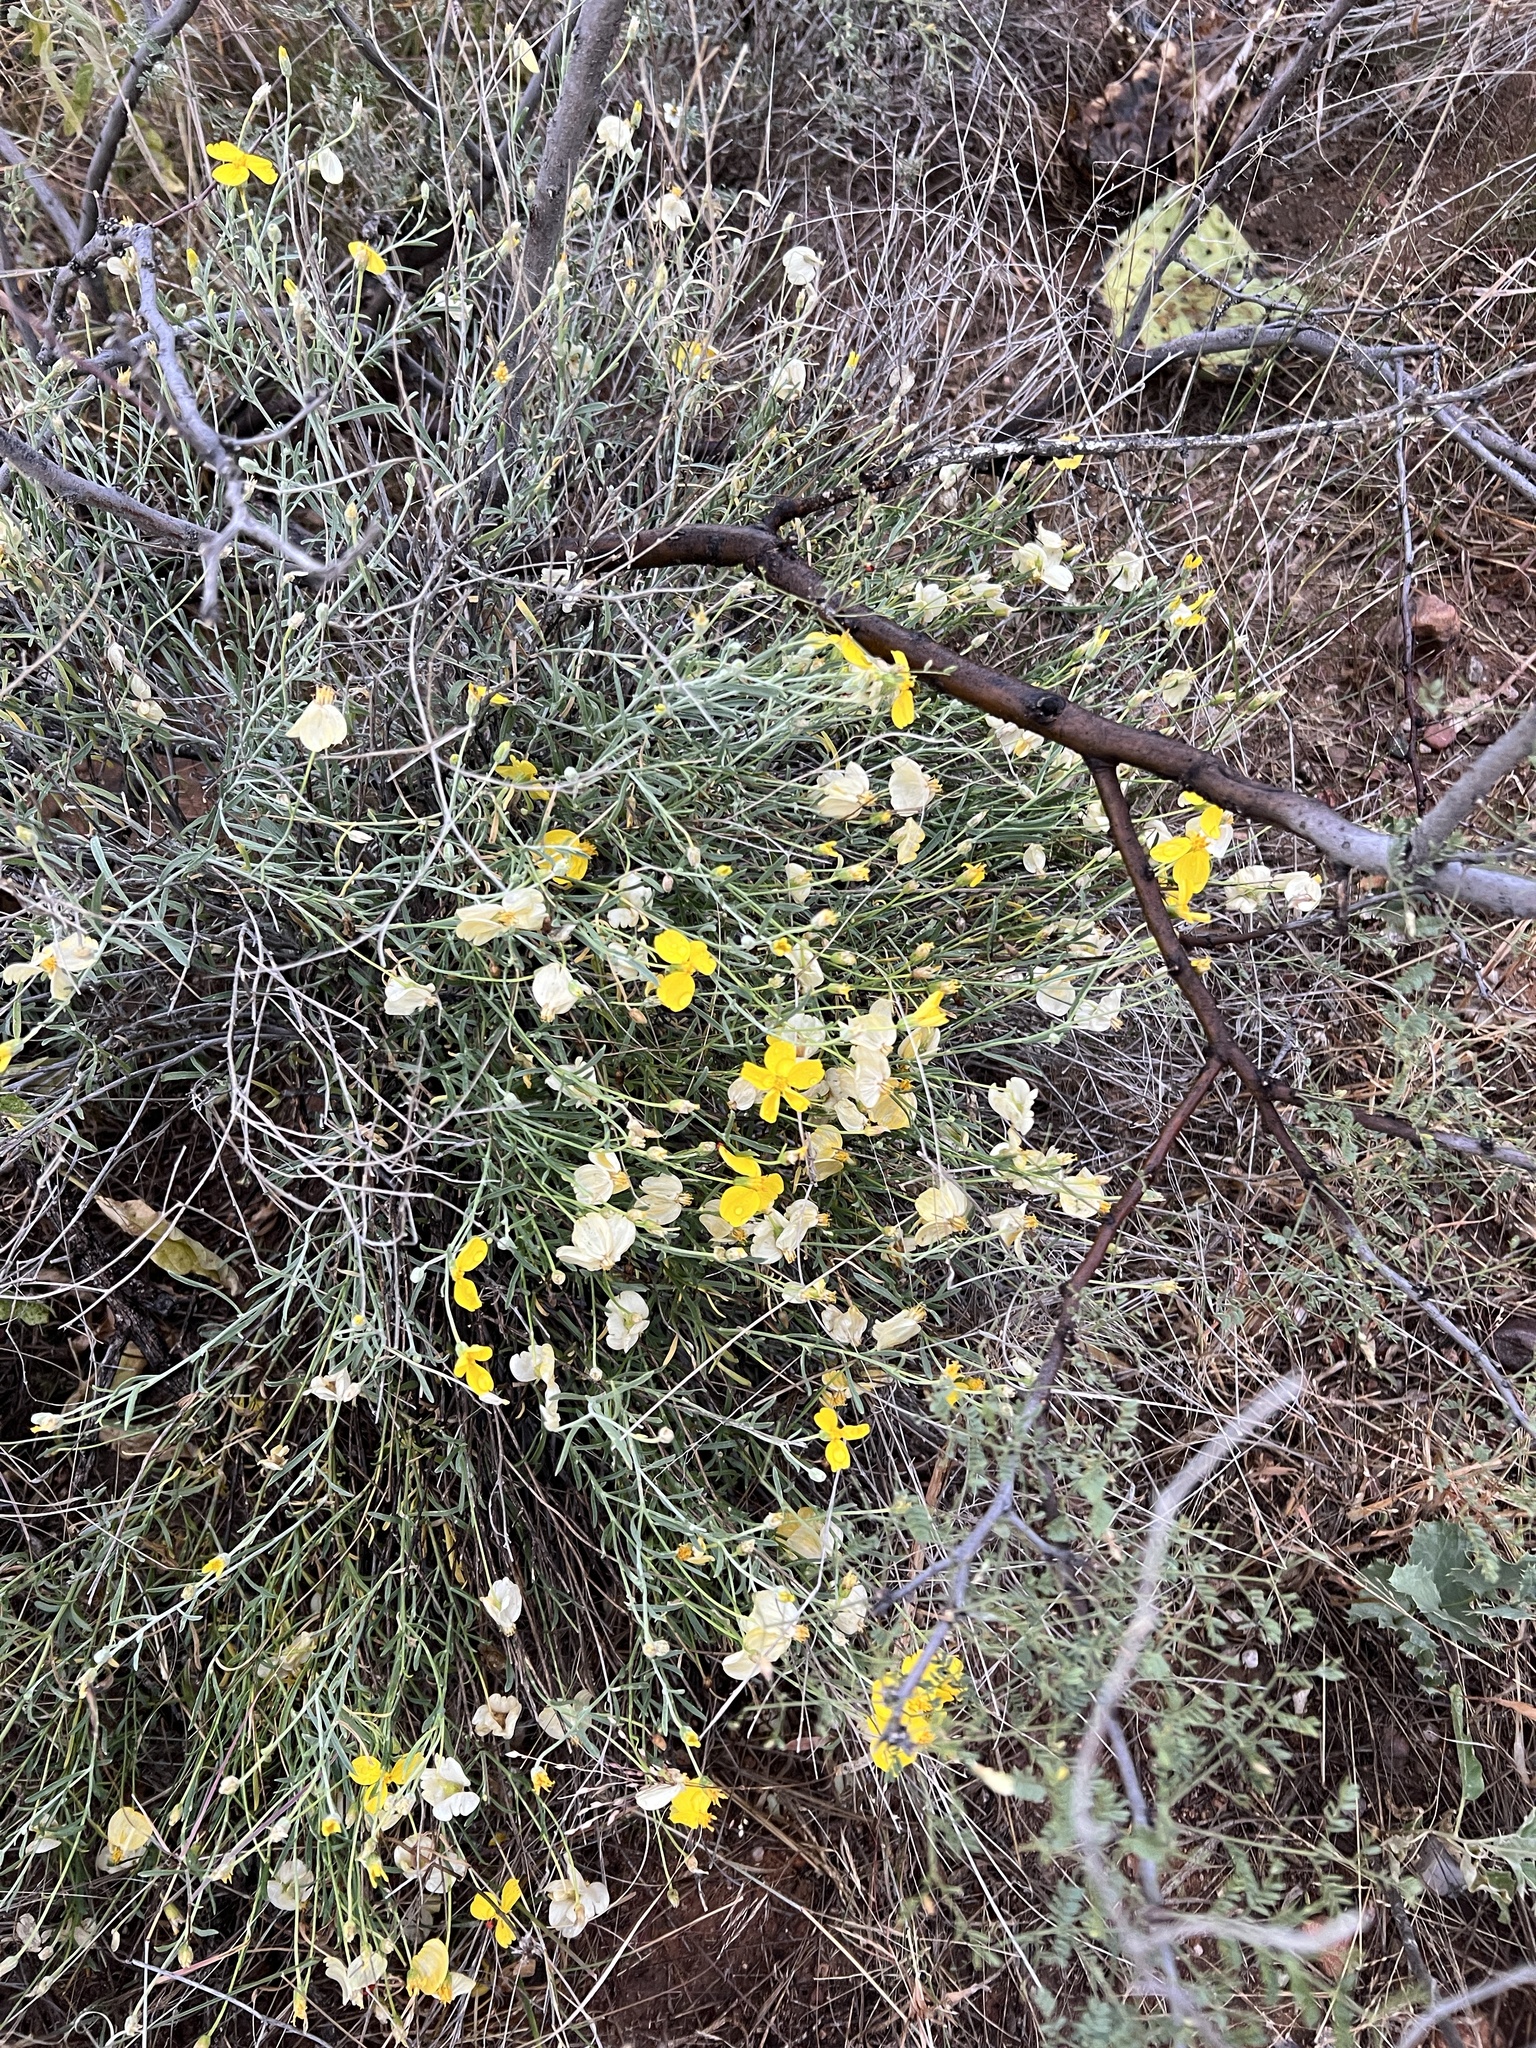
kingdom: Plantae
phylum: Tracheophyta
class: Magnoliopsida
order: Asterales
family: Asteraceae
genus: Psilostrophe
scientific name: Psilostrophe cooperi
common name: White-stem paper-flower
